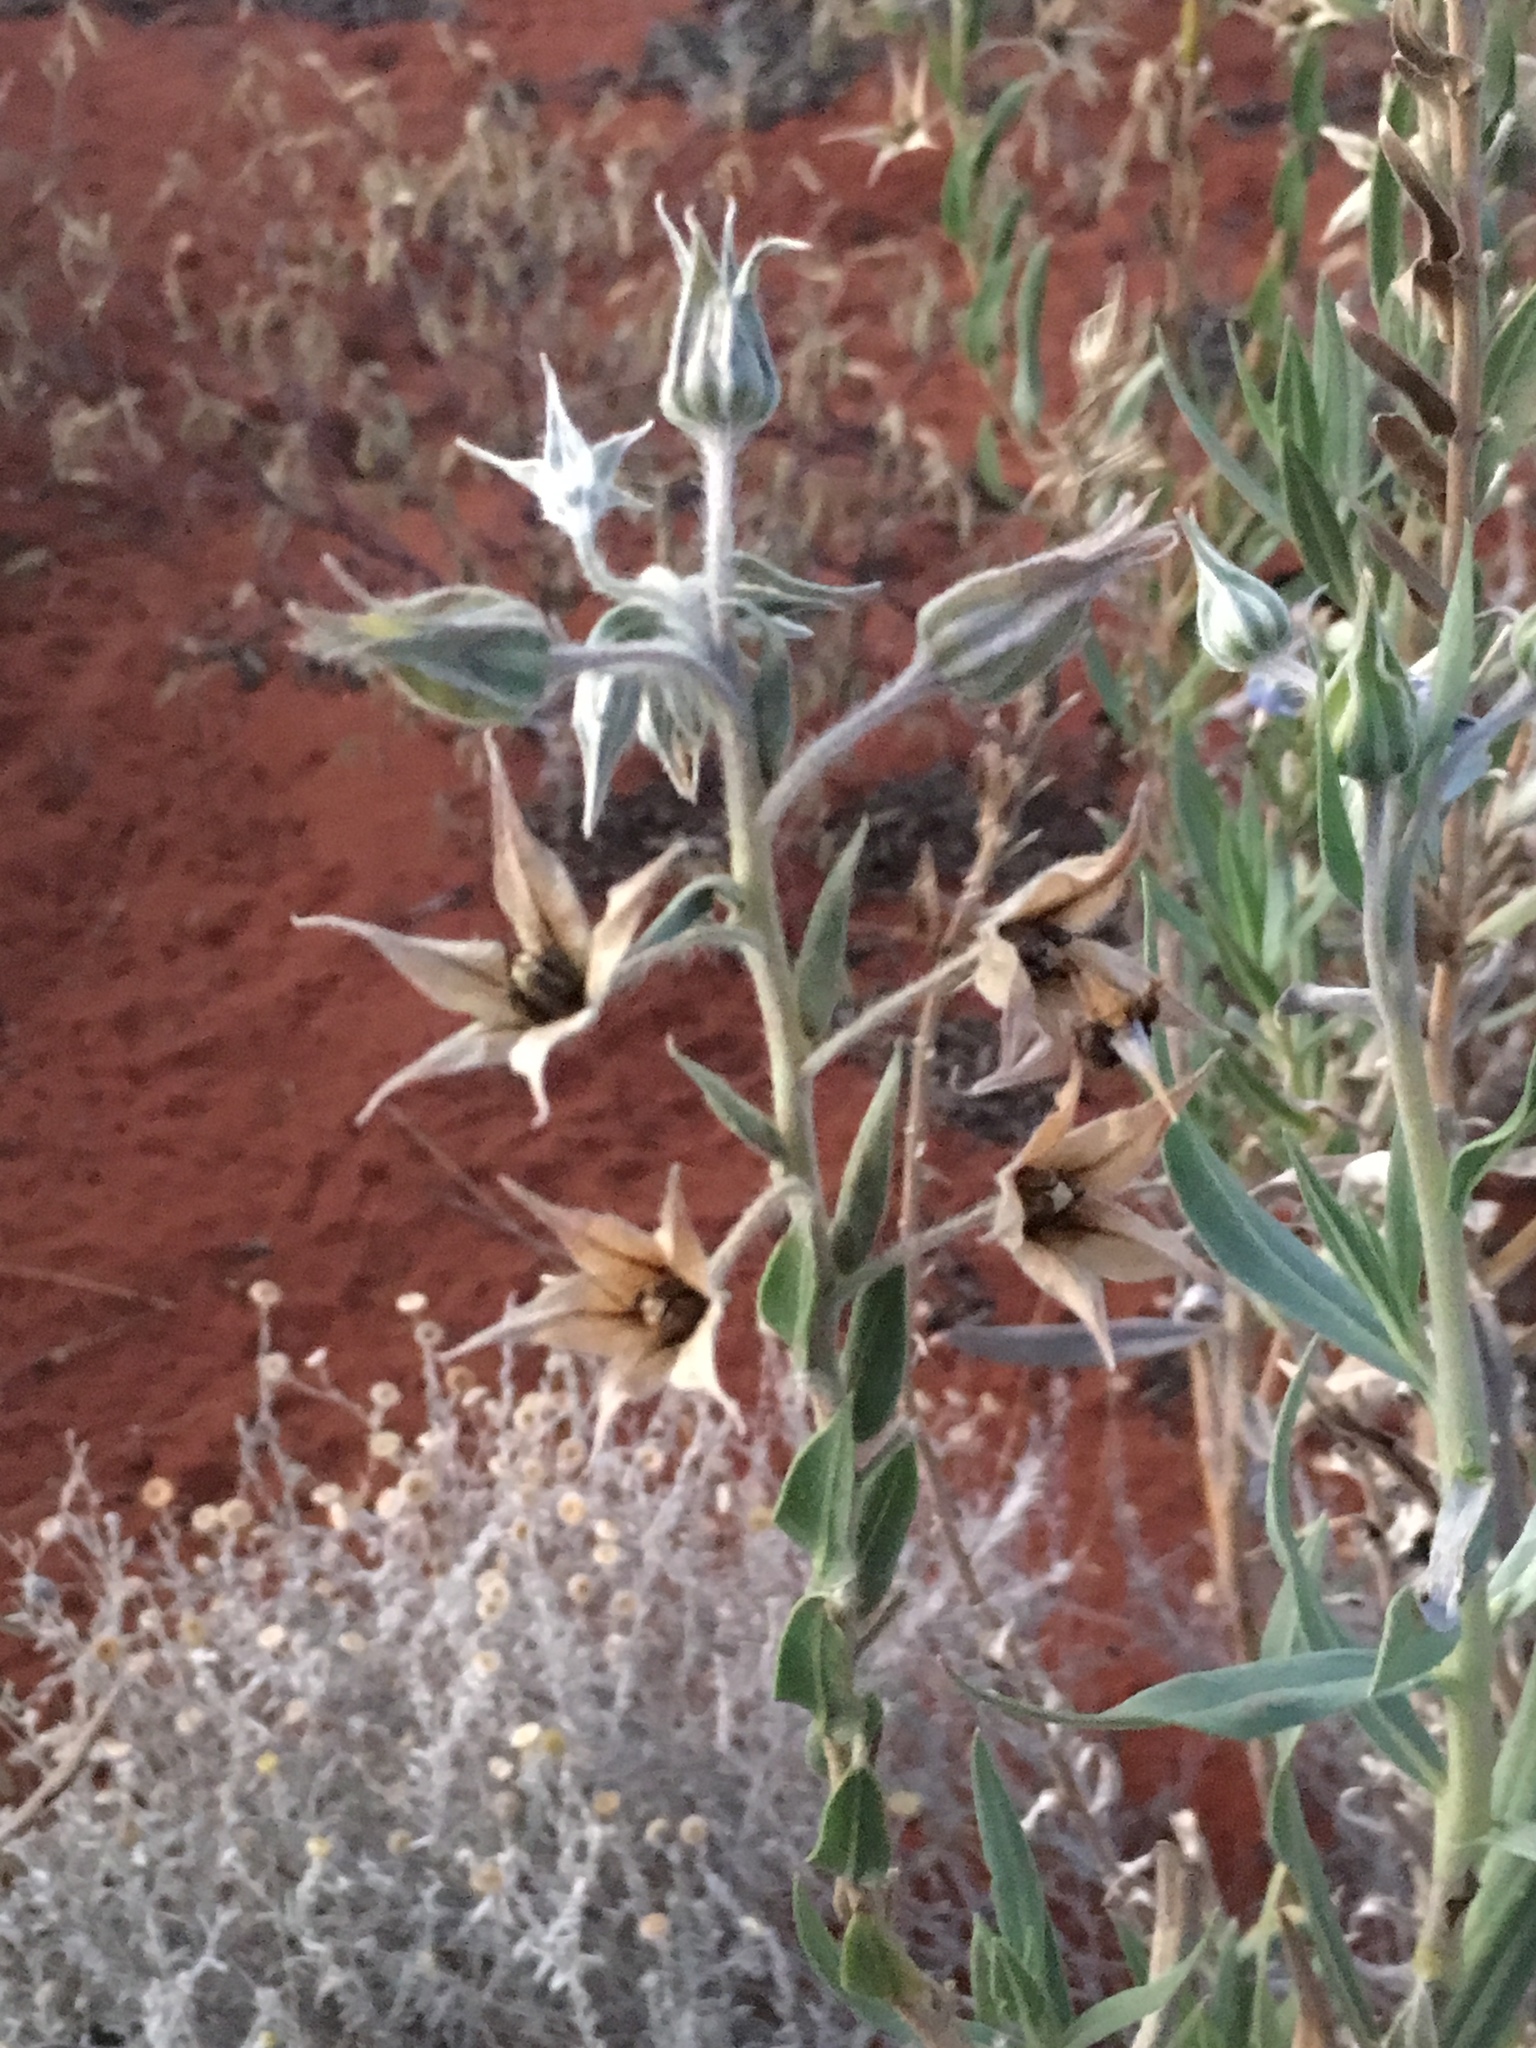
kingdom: Plantae
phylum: Tracheophyta
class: Magnoliopsida
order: Boraginales
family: Boraginaceae
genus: Trichodesma
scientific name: Trichodesma zeylanicum
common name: Camelbush
